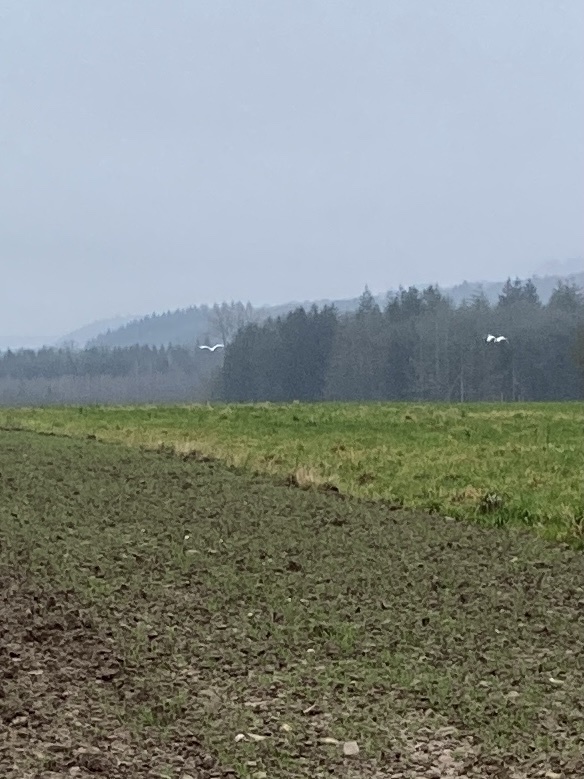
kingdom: Animalia
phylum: Chordata
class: Aves
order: Pelecaniformes
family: Ardeidae
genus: Ardea
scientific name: Ardea alba
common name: Great egret
